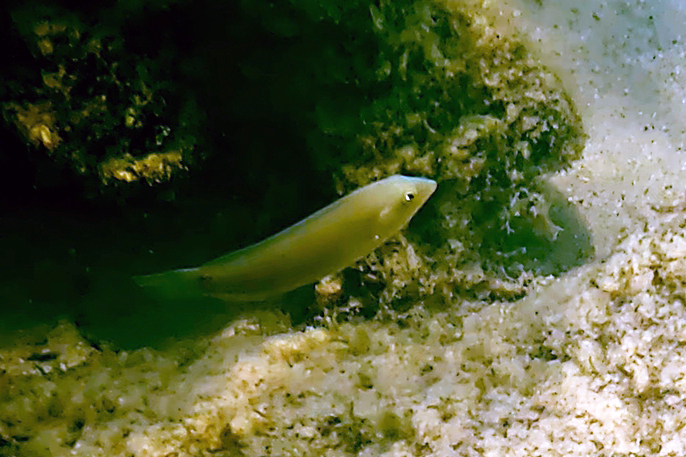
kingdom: Animalia
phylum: Chordata
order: Perciformes
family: Labridae
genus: Halichoeres
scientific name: Halichoeres chloropterus
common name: Pastel-green wrasse
